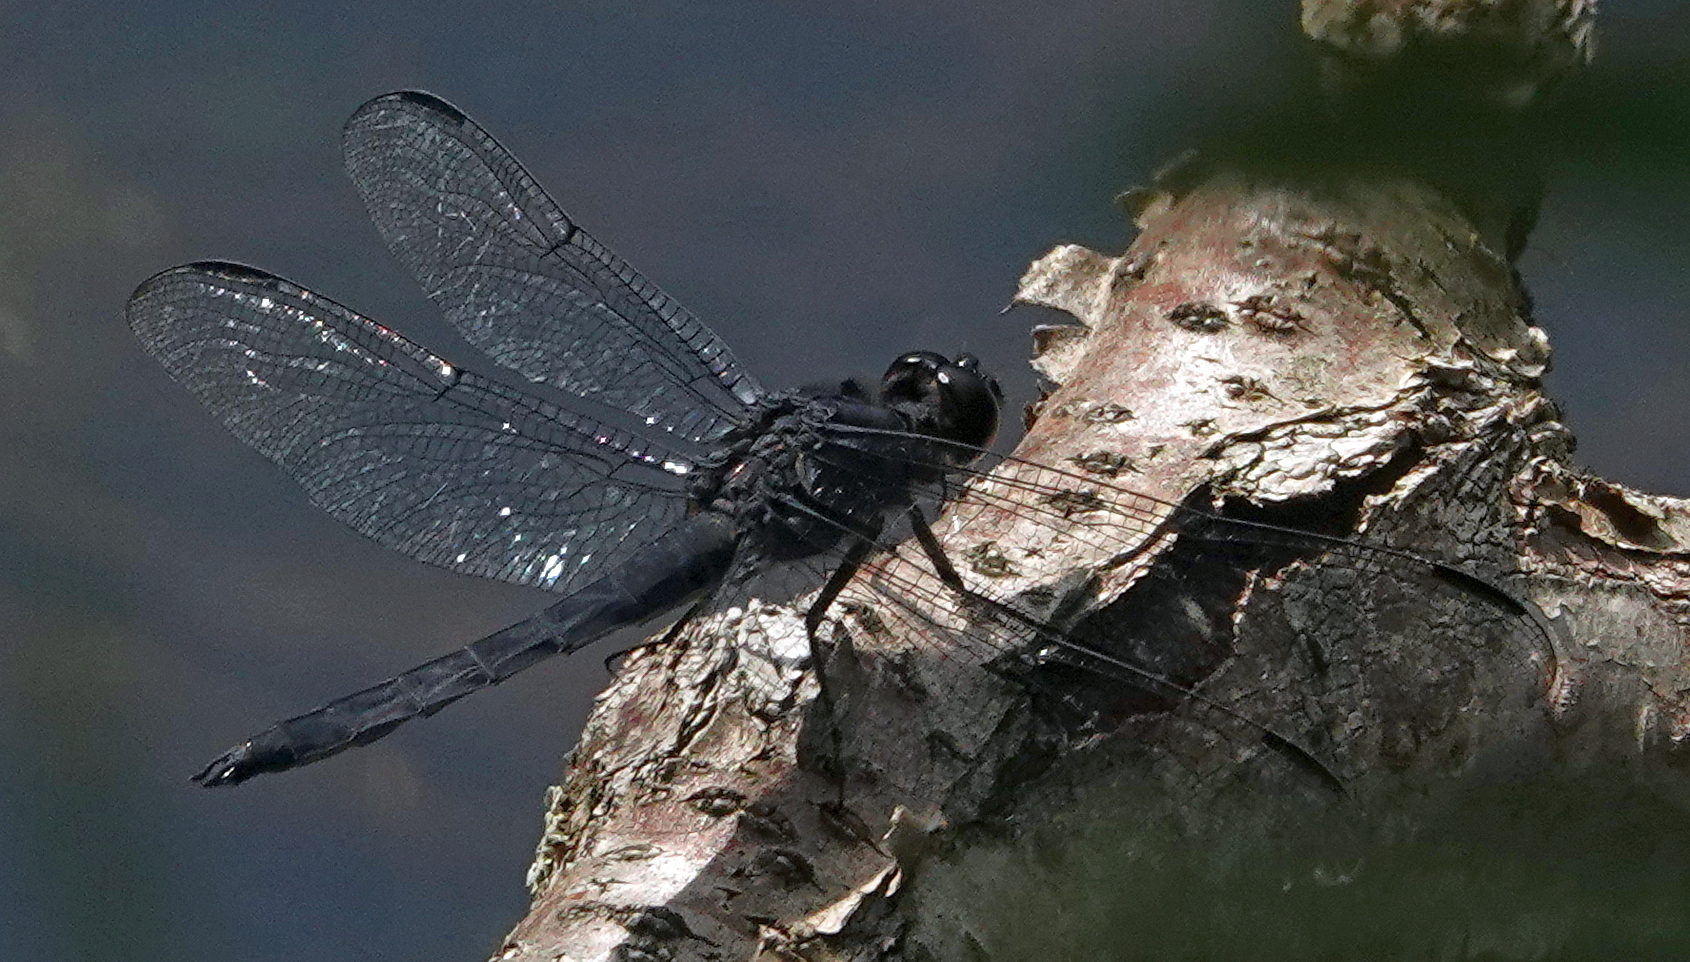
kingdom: Animalia
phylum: Arthropoda
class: Insecta
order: Odonata
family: Libellulidae
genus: Libellula
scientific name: Libellula incesta
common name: Slaty skimmer
